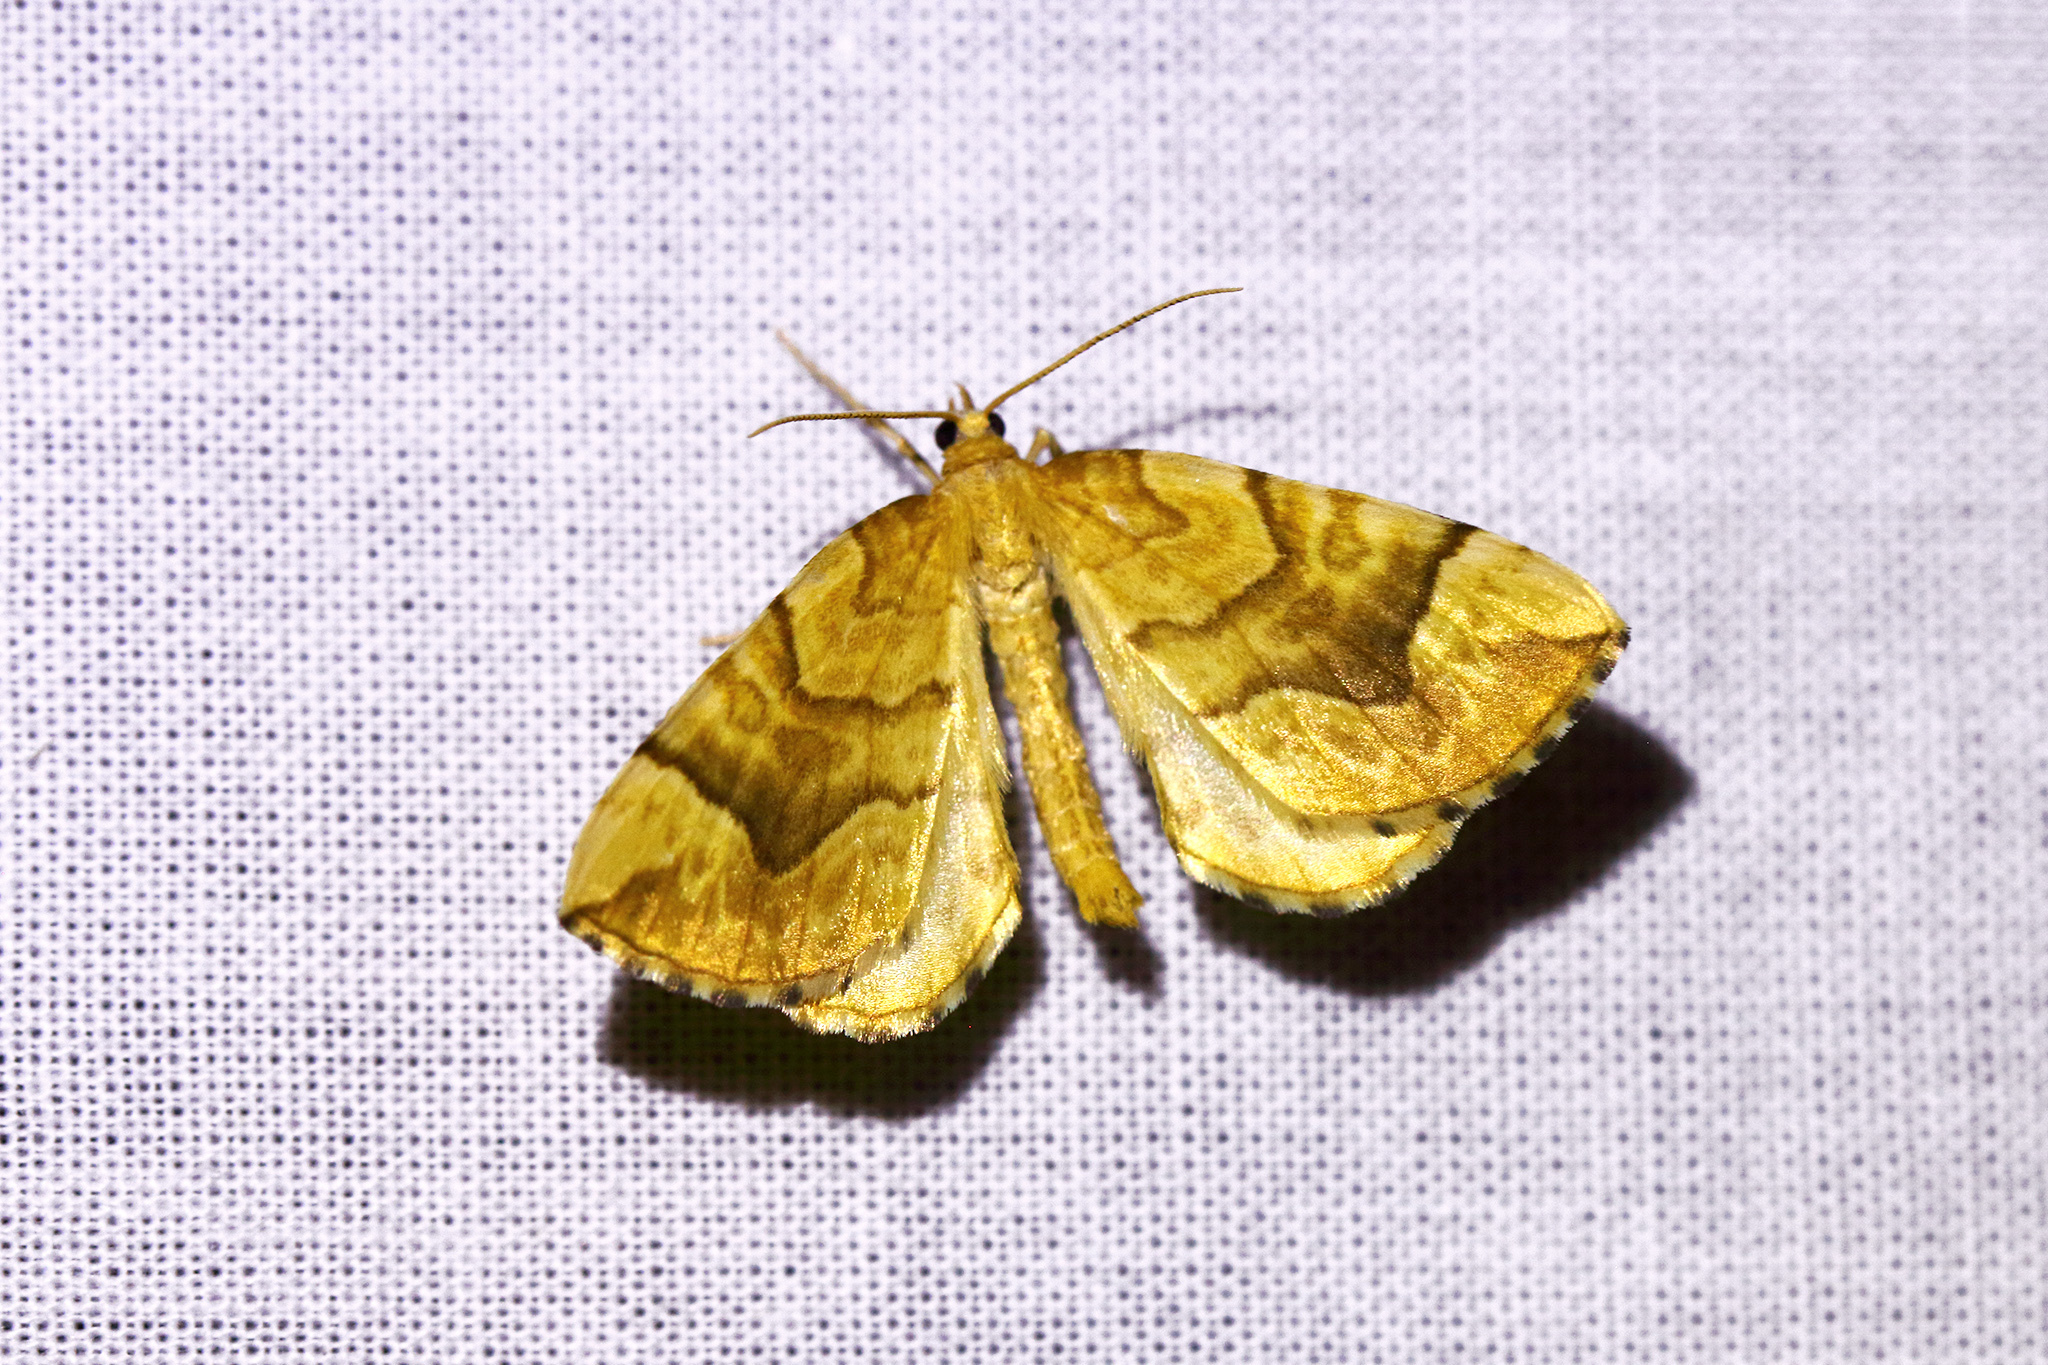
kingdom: Animalia
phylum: Arthropoda
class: Insecta
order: Lepidoptera
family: Geometridae
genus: Eulithis
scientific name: Eulithis mellinata
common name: Spinach
